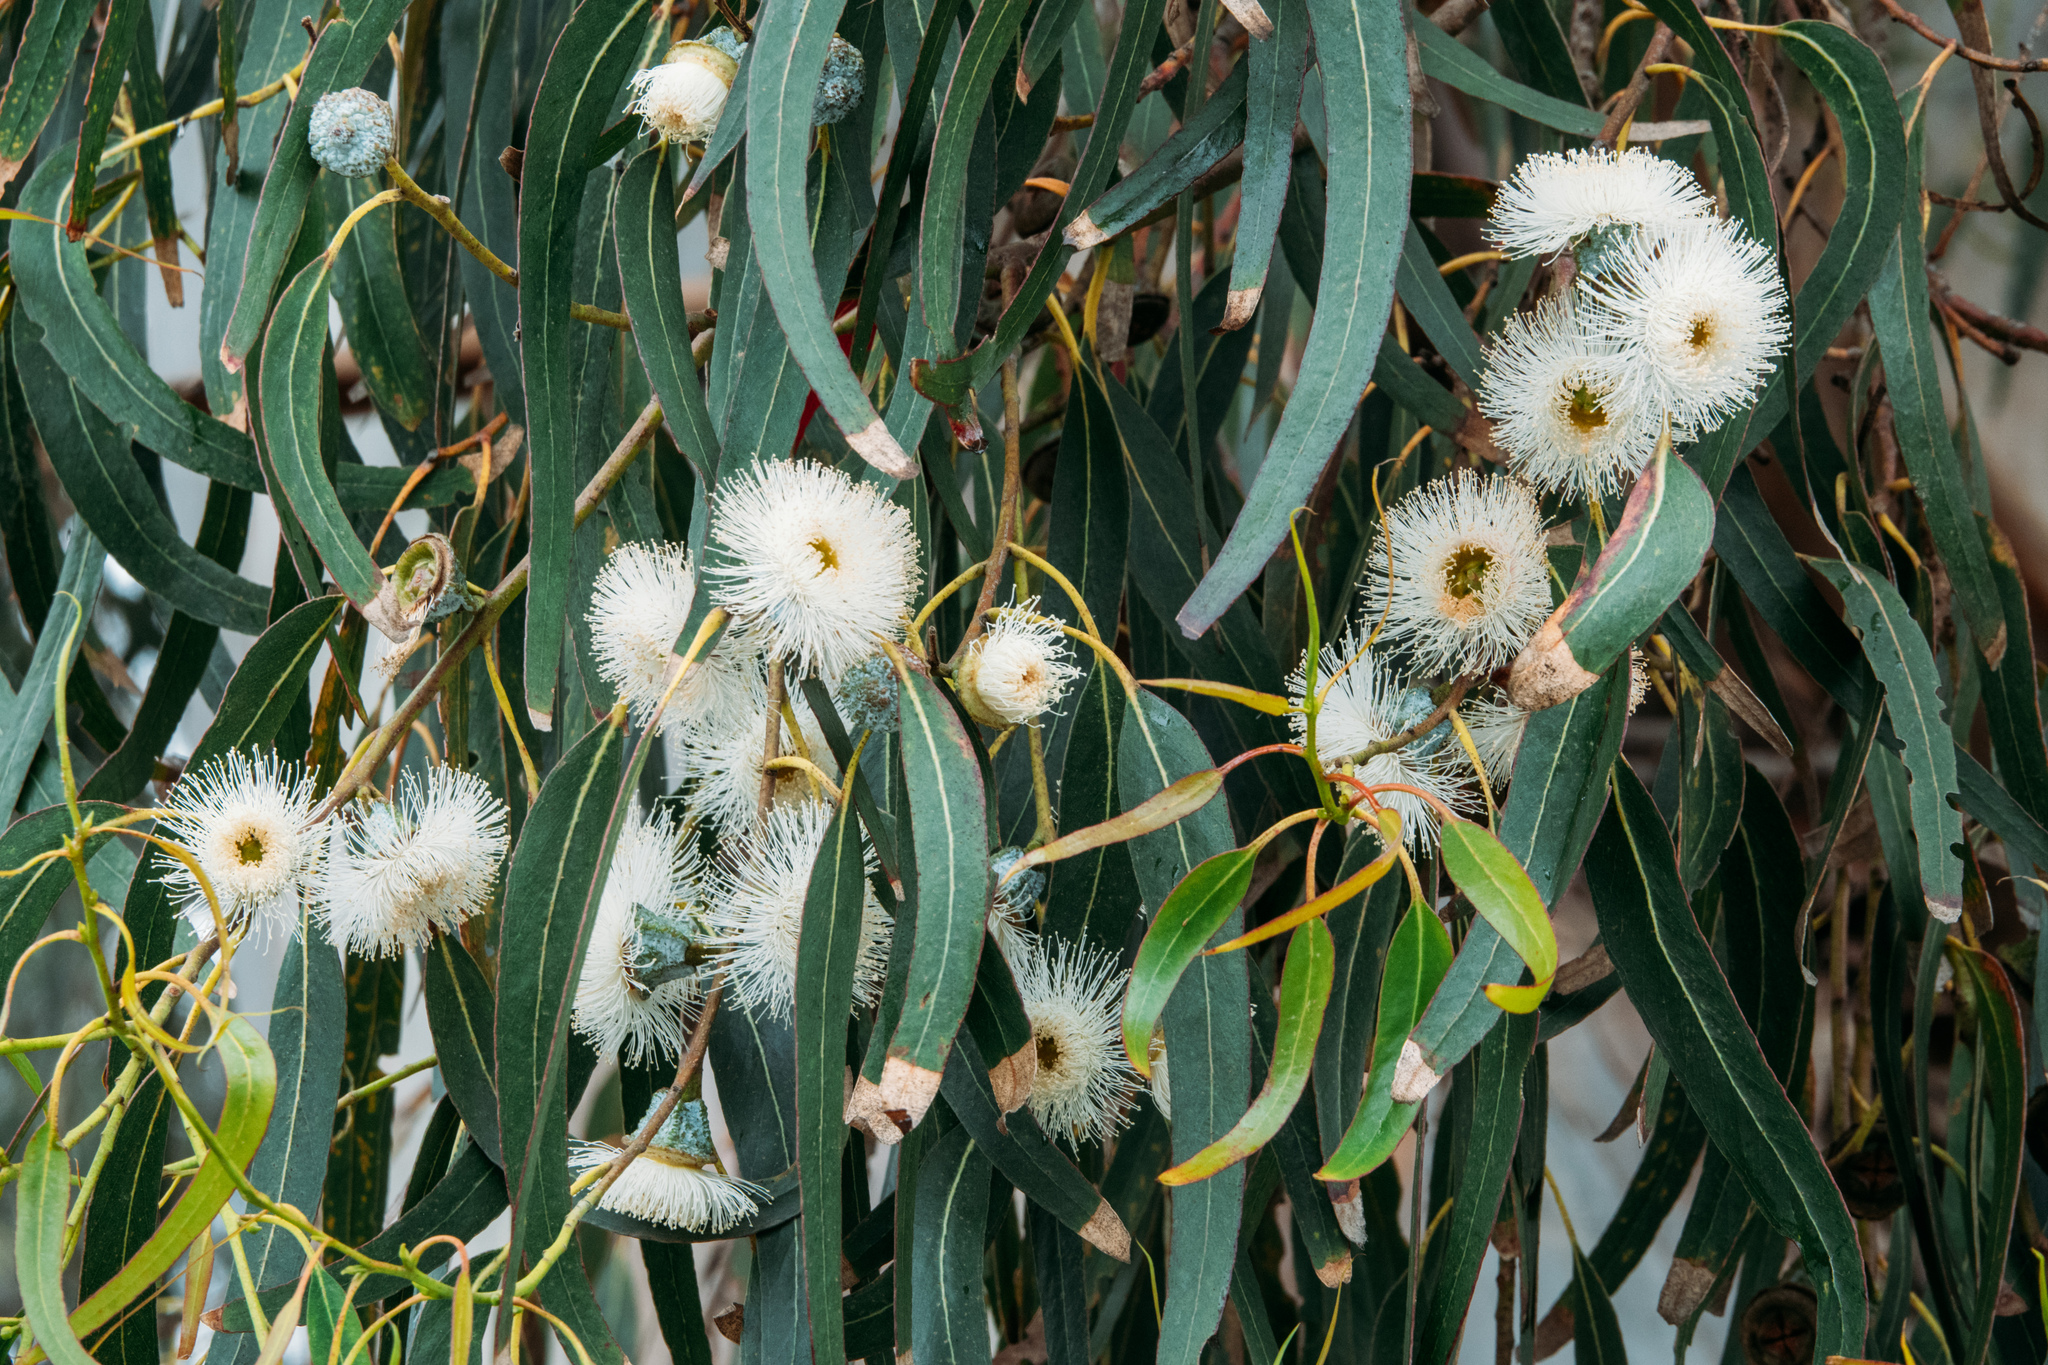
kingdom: Plantae
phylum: Tracheophyta
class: Magnoliopsida
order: Myrtales
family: Myrtaceae
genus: Eucalyptus
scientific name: Eucalyptus globulus
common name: Southern blue-gum
